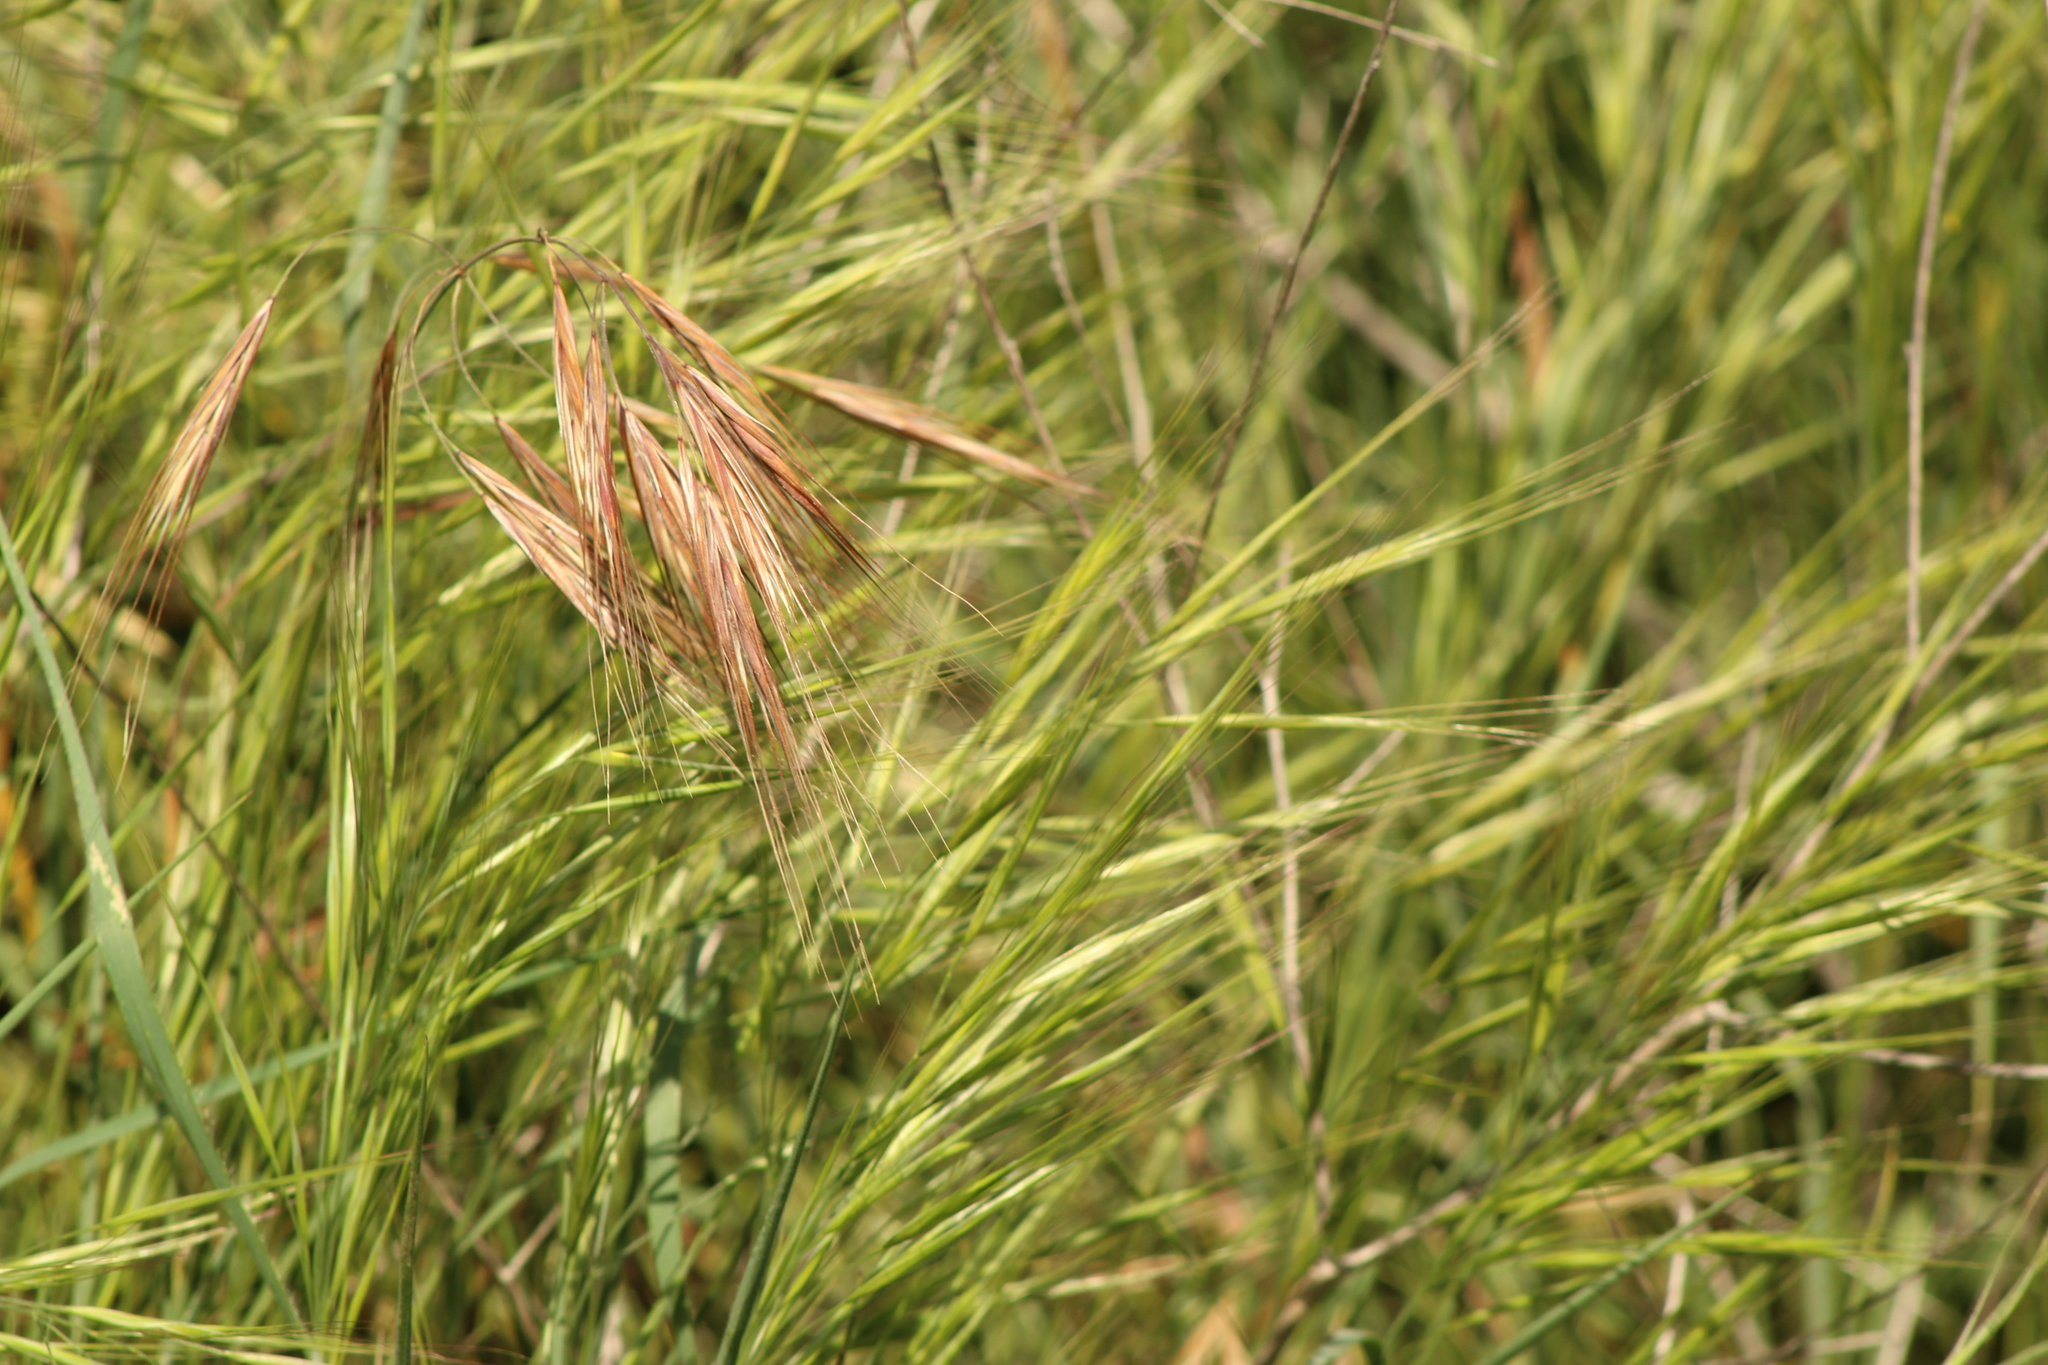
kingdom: Plantae
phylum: Tracheophyta
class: Liliopsida
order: Poales
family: Poaceae
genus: Bromus
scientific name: Bromus diandrus
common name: Ripgut brome
